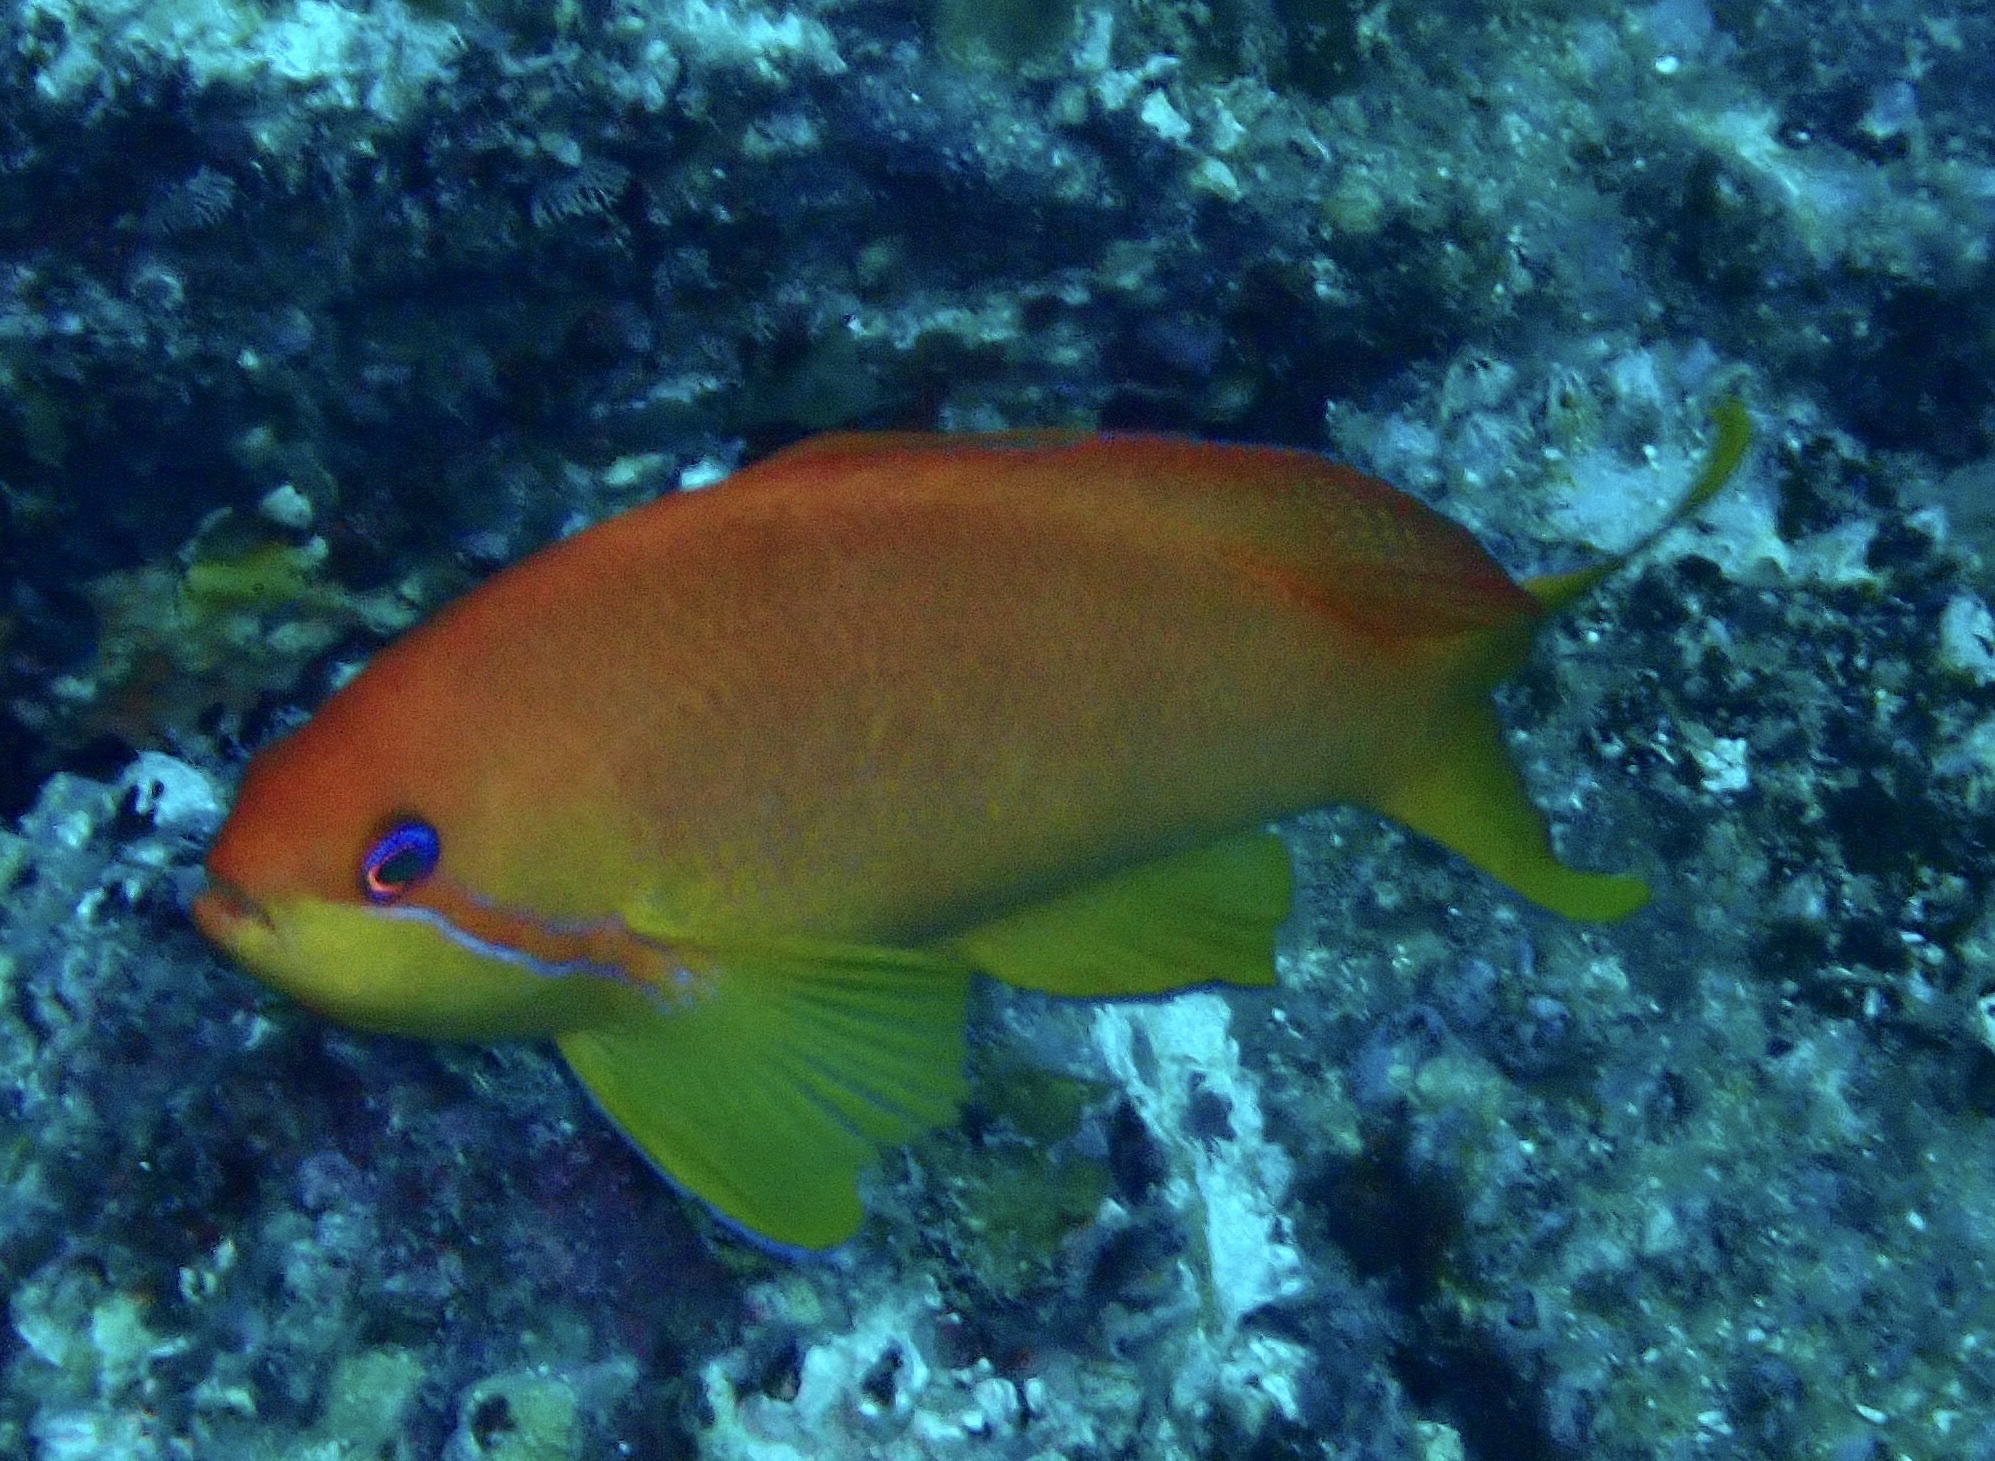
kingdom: Animalia
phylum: Chordata
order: Perciformes
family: Serranidae
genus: Pseudanthias
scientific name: Pseudanthias squamipinnis
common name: Scalefin anthias
